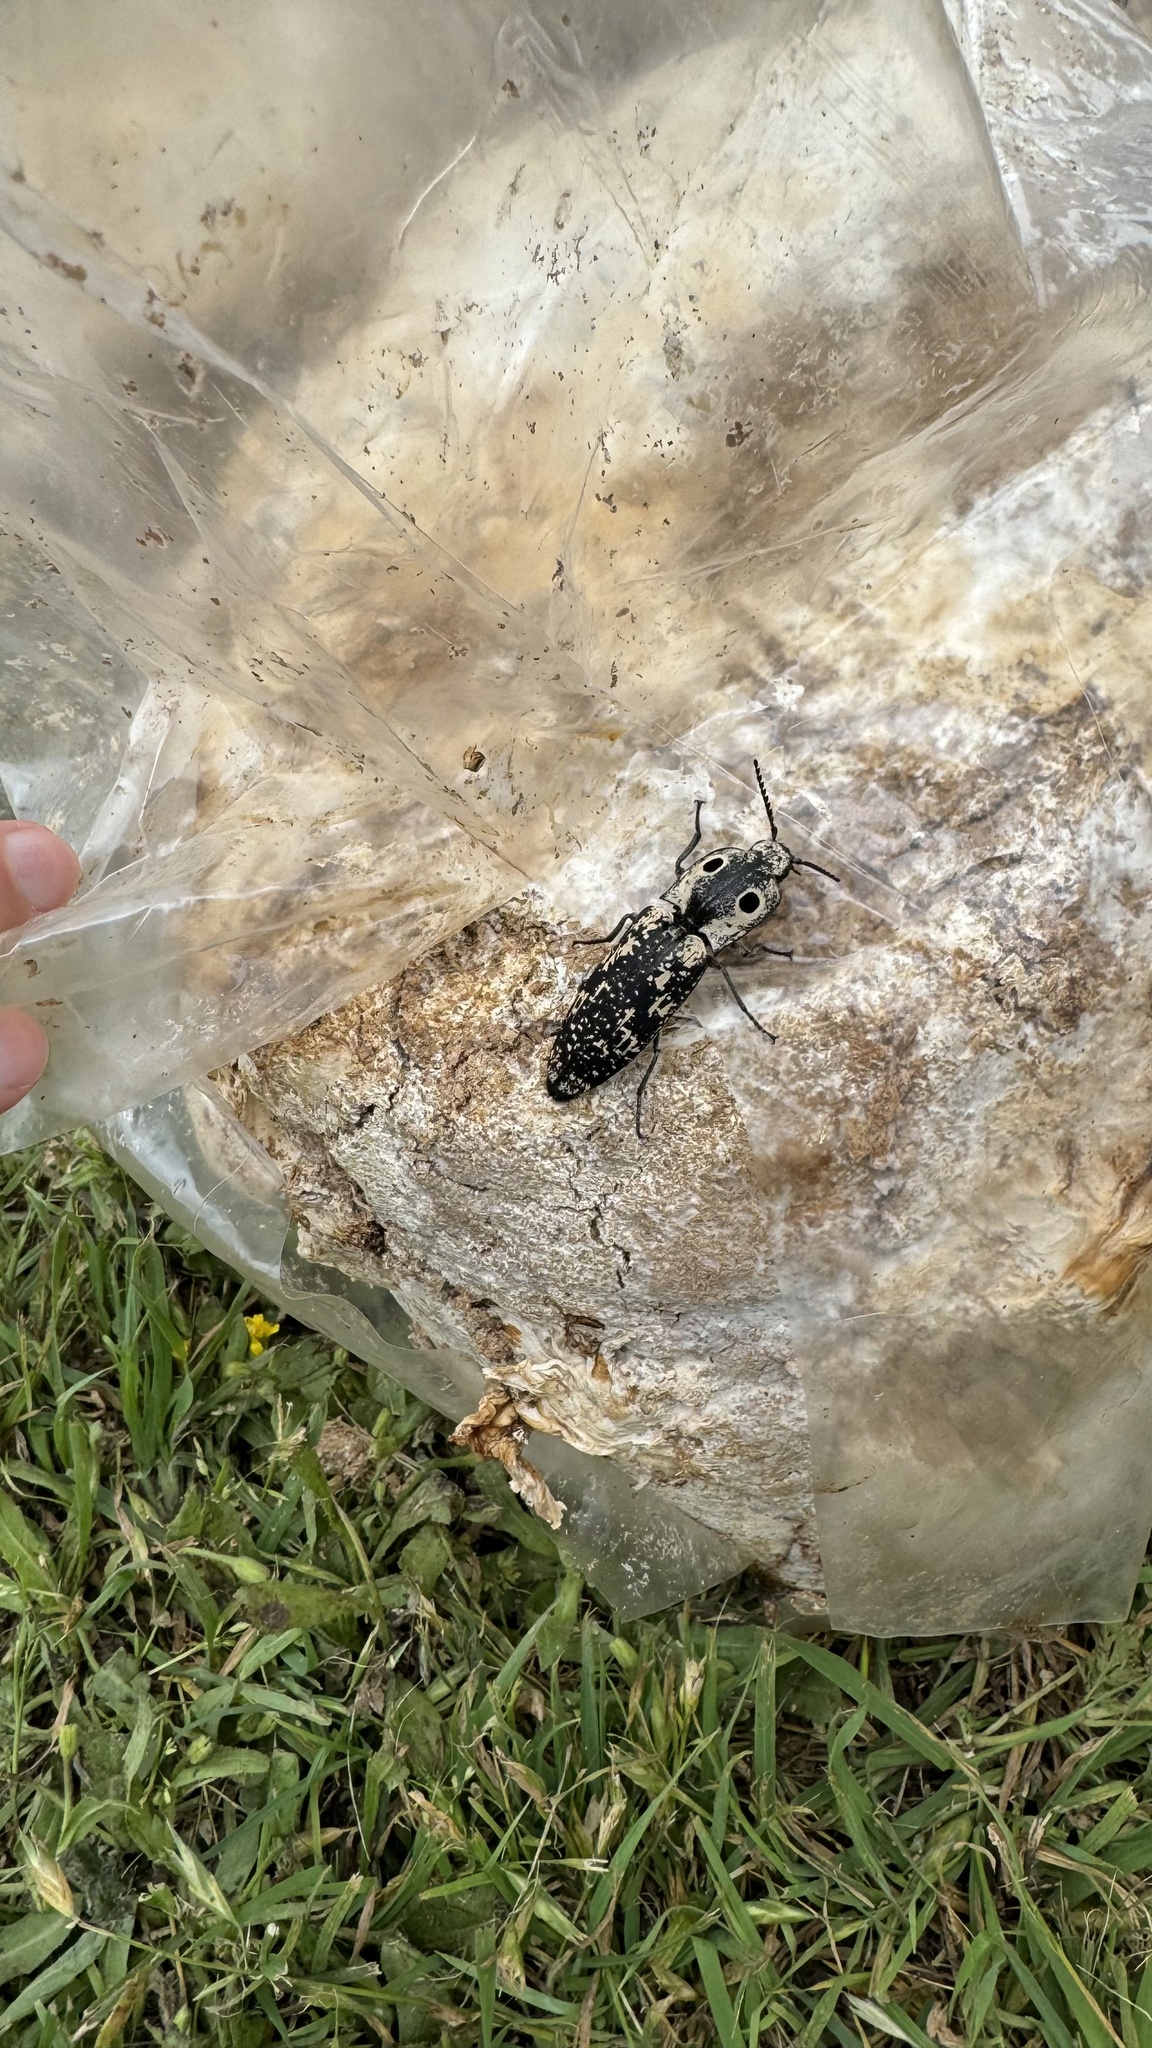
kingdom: Animalia
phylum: Arthropoda
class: Insecta
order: Coleoptera
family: Elateridae
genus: Alaus
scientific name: Alaus
